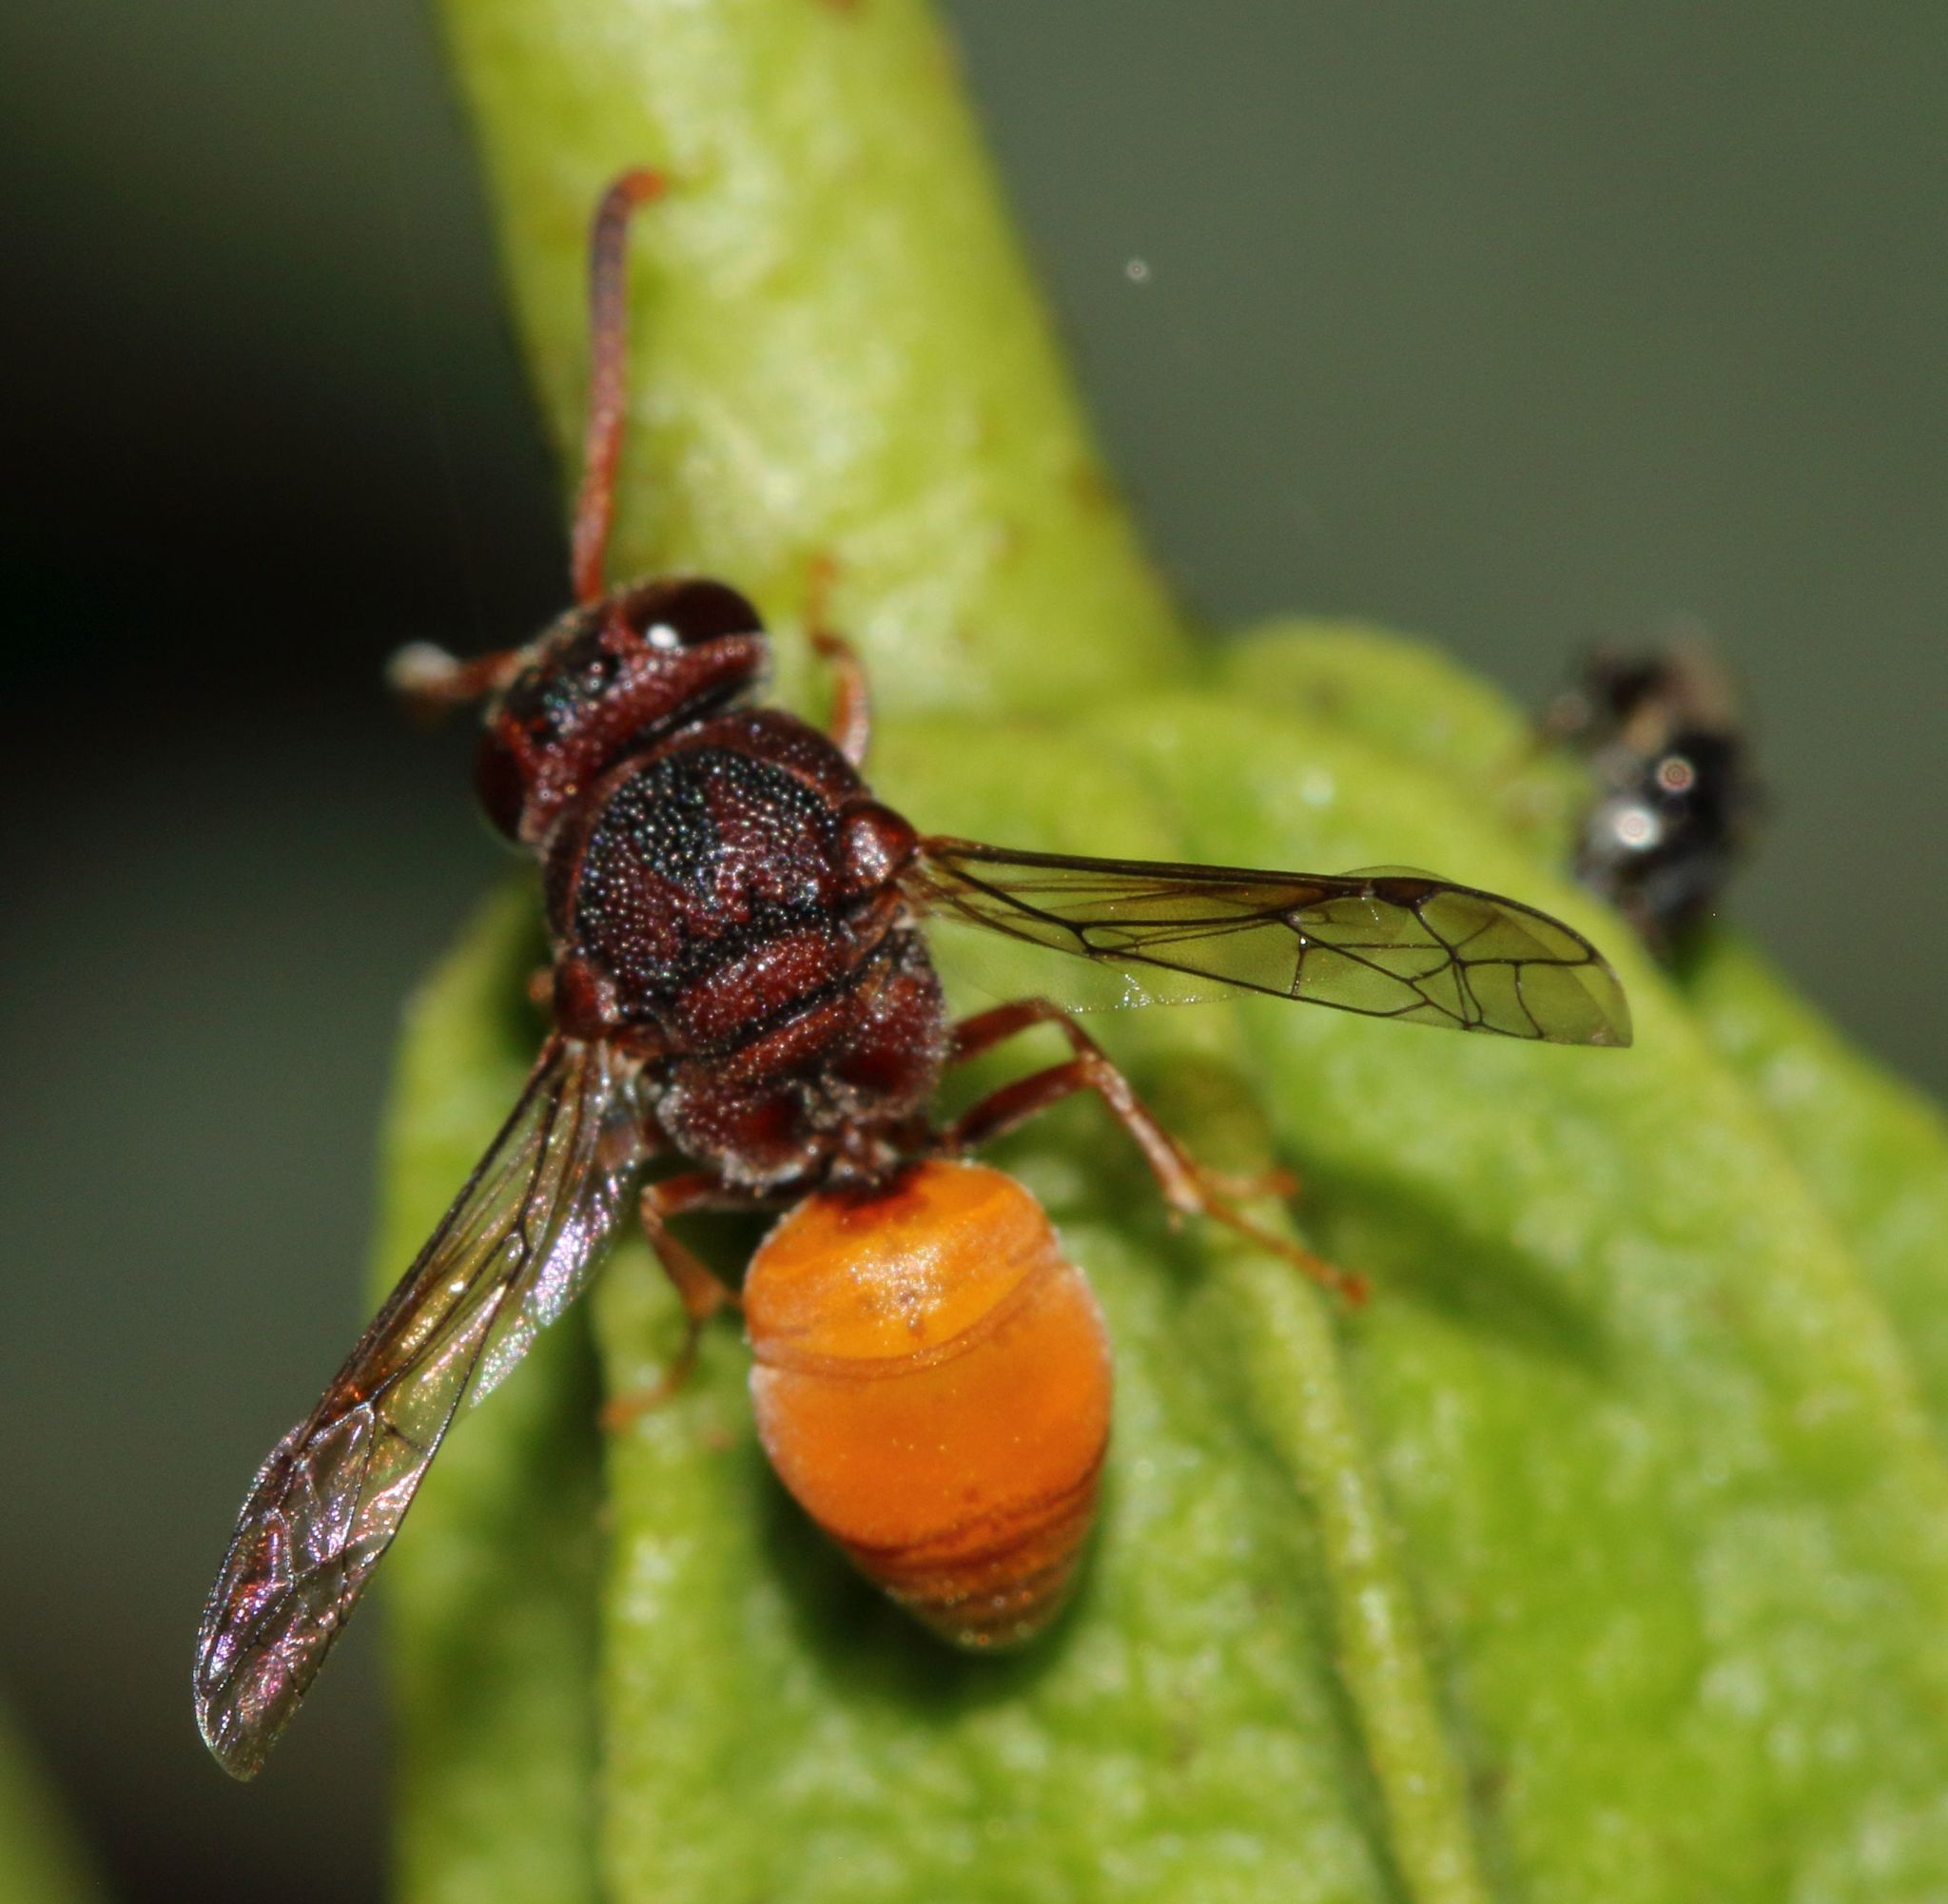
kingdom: Animalia
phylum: Arthropoda
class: Insecta
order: Hymenoptera
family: Eumenidae
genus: Proepipona
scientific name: Proepipona
